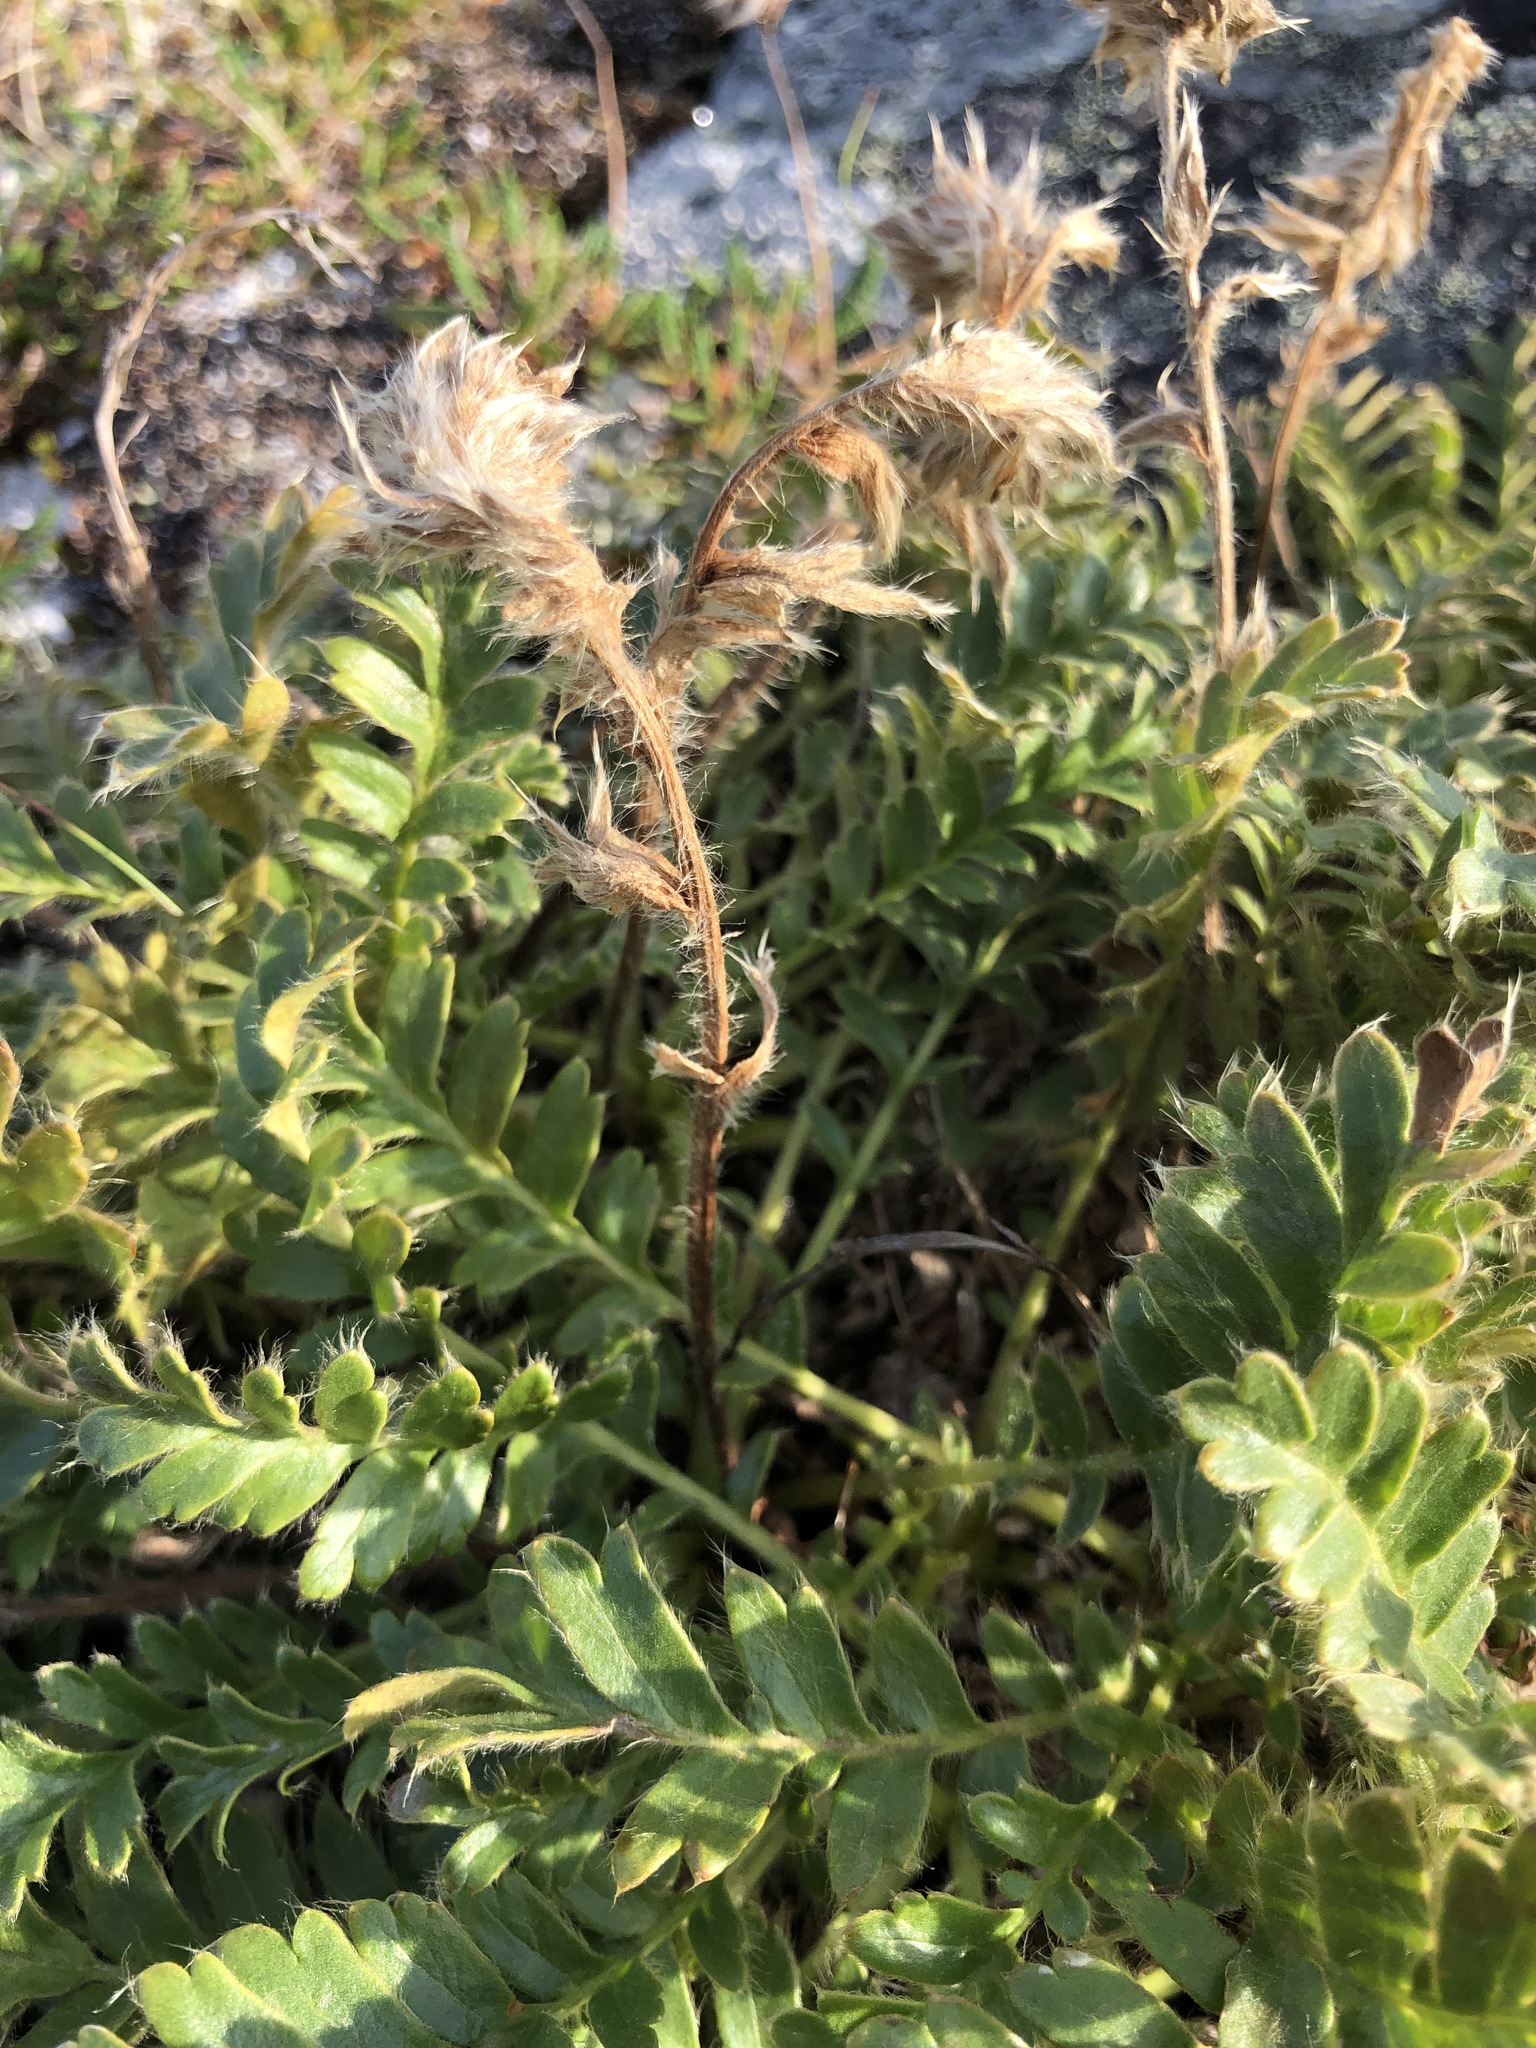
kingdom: Plantae
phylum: Tracheophyta
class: Magnoliopsida
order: Rosales
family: Rosaceae
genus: Geum
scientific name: Geum glaciale
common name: Glacier avens
